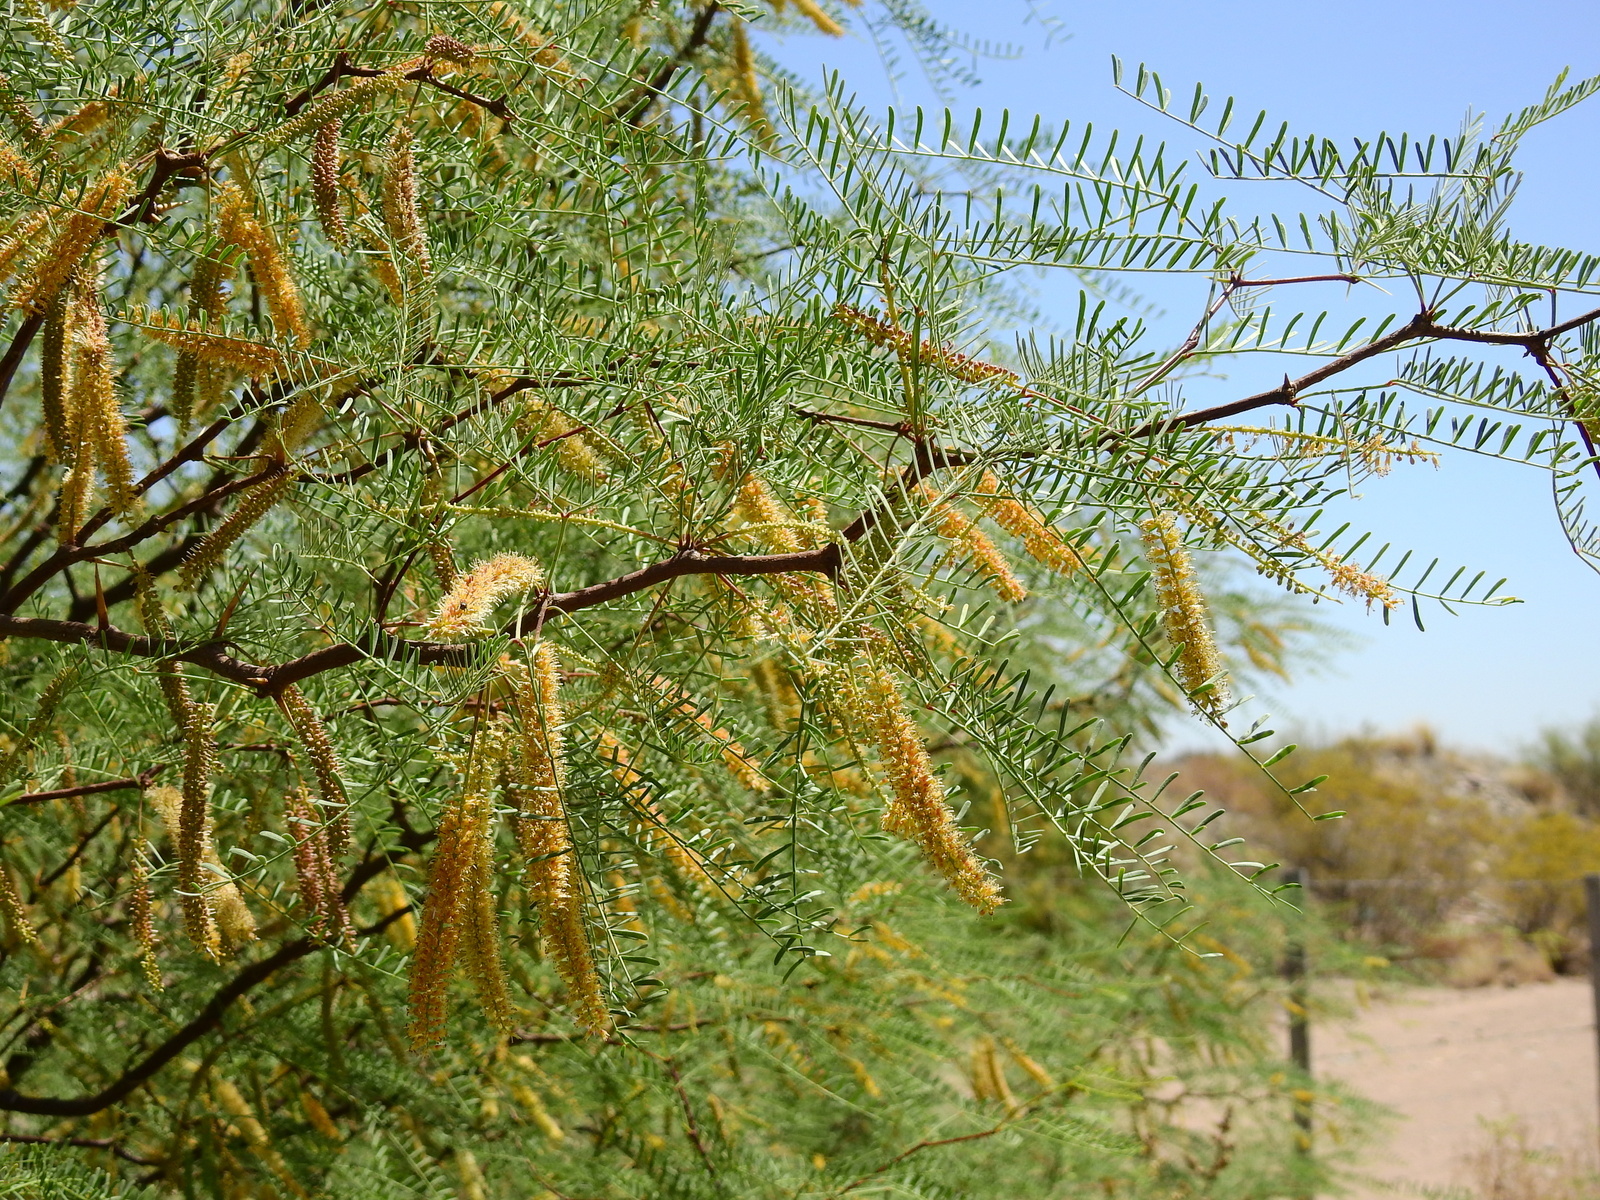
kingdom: Plantae
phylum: Tracheophyta
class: Magnoliopsida
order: Fabales
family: Fabaceae
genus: Prosopis
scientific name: Prosopis flexuosa
